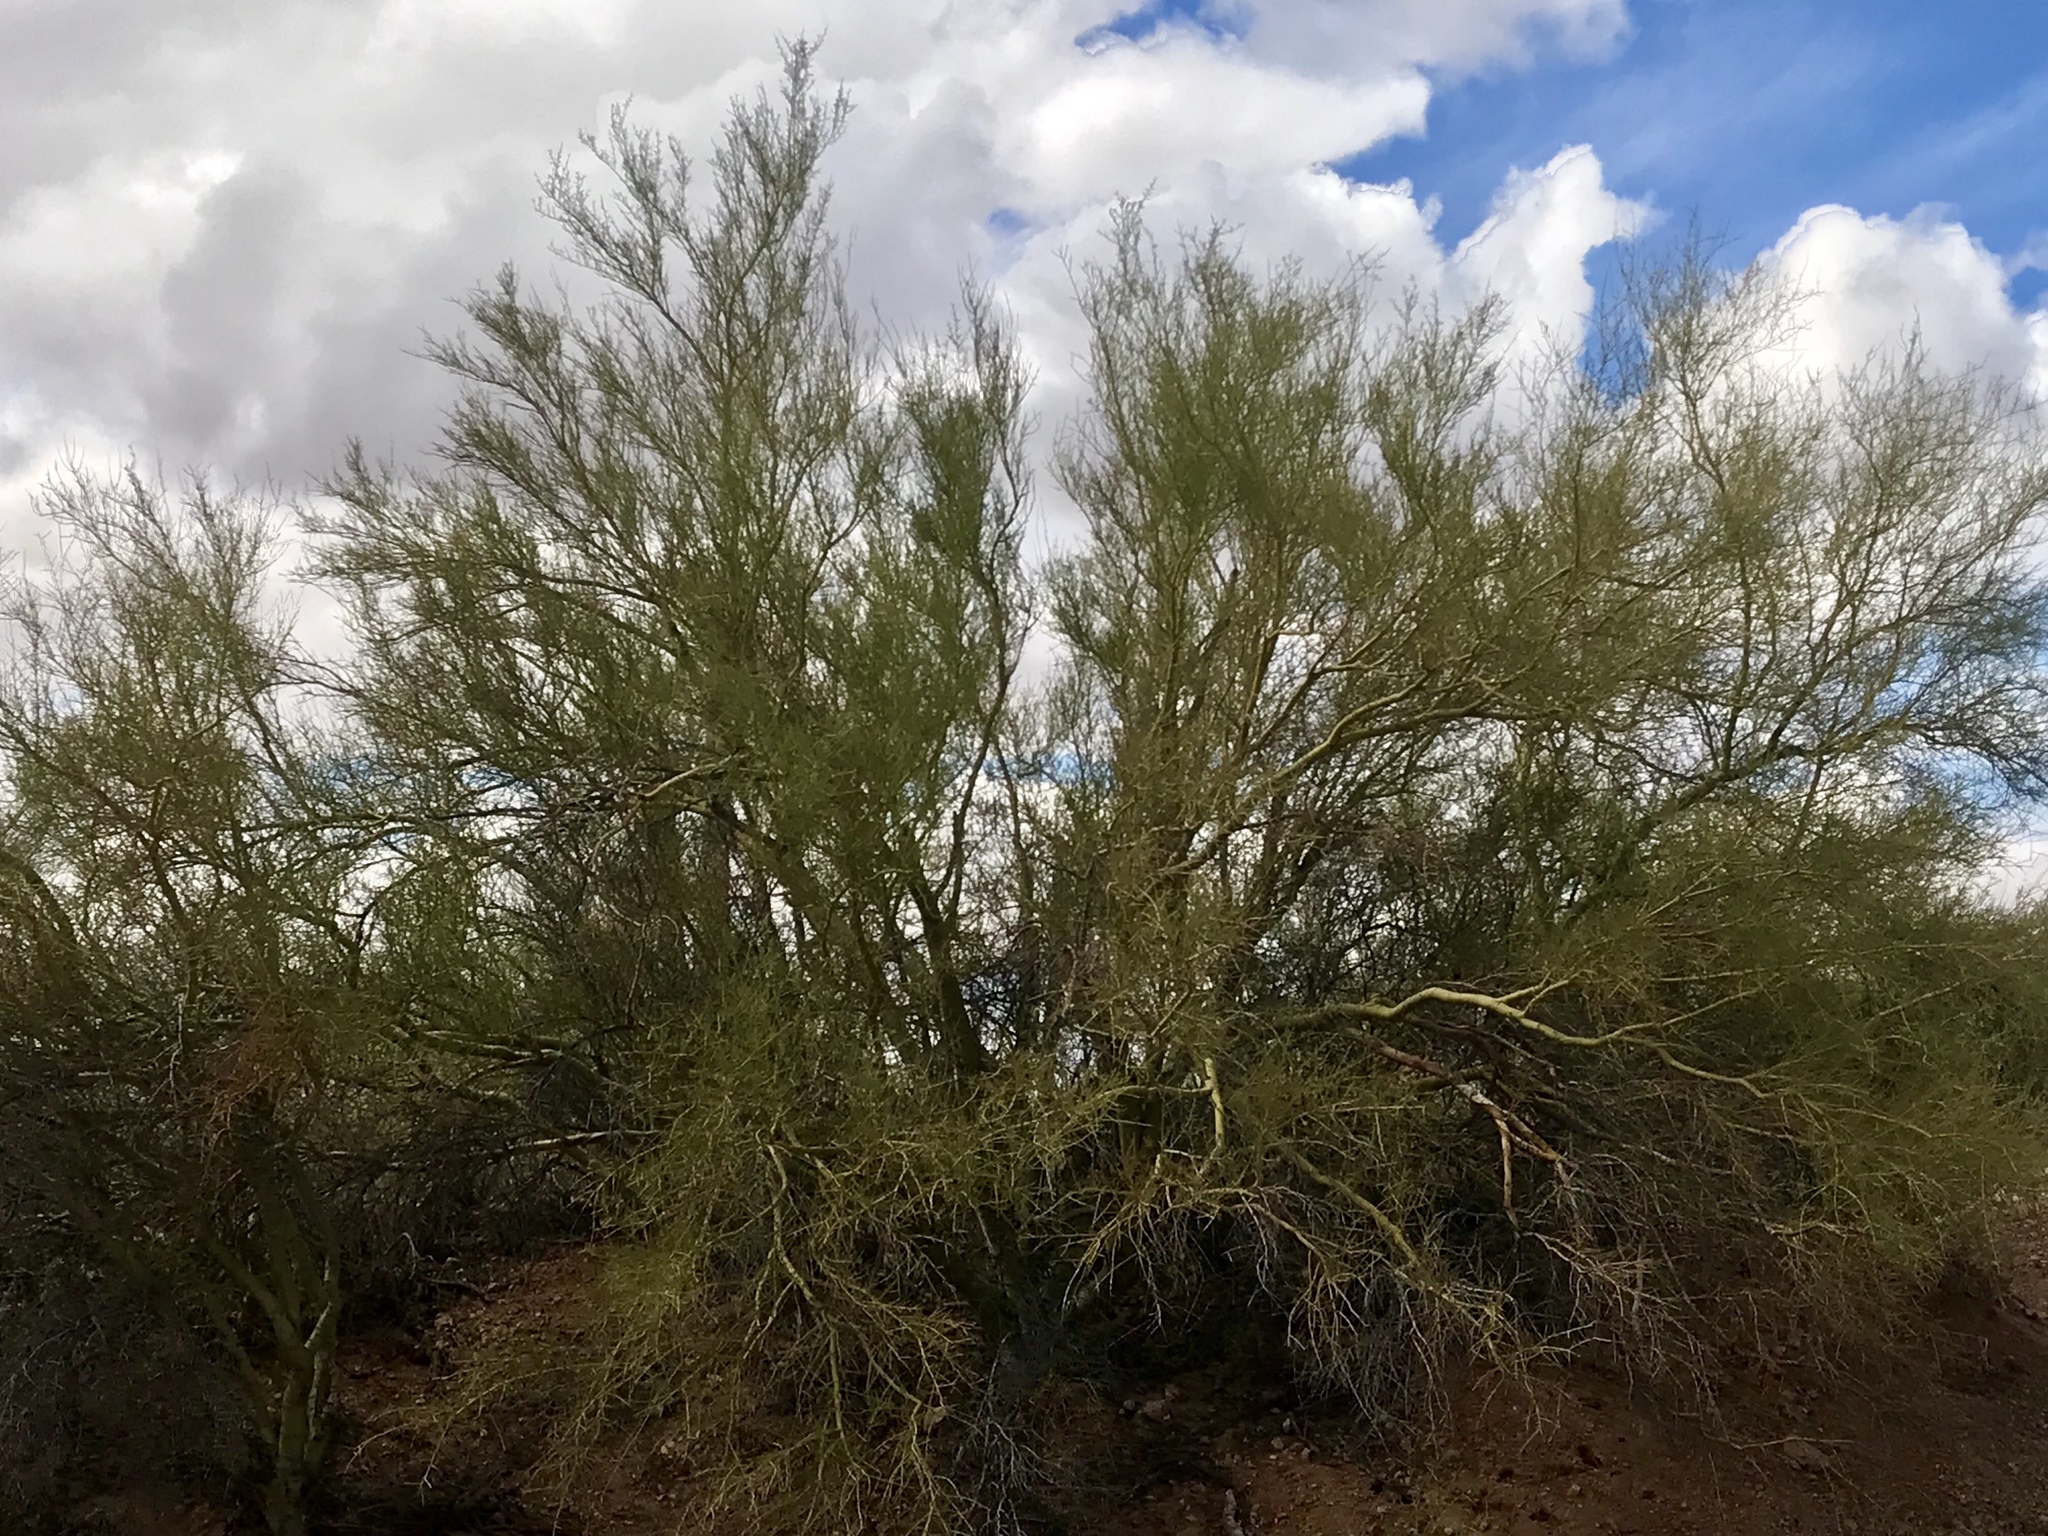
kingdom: Plantae
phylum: Tracheophyta
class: Magnoliopsida
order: Fabales
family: Fabaceae
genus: Parkinsonia
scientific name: Parkinsonia microphylla
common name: Yellow paloverde
